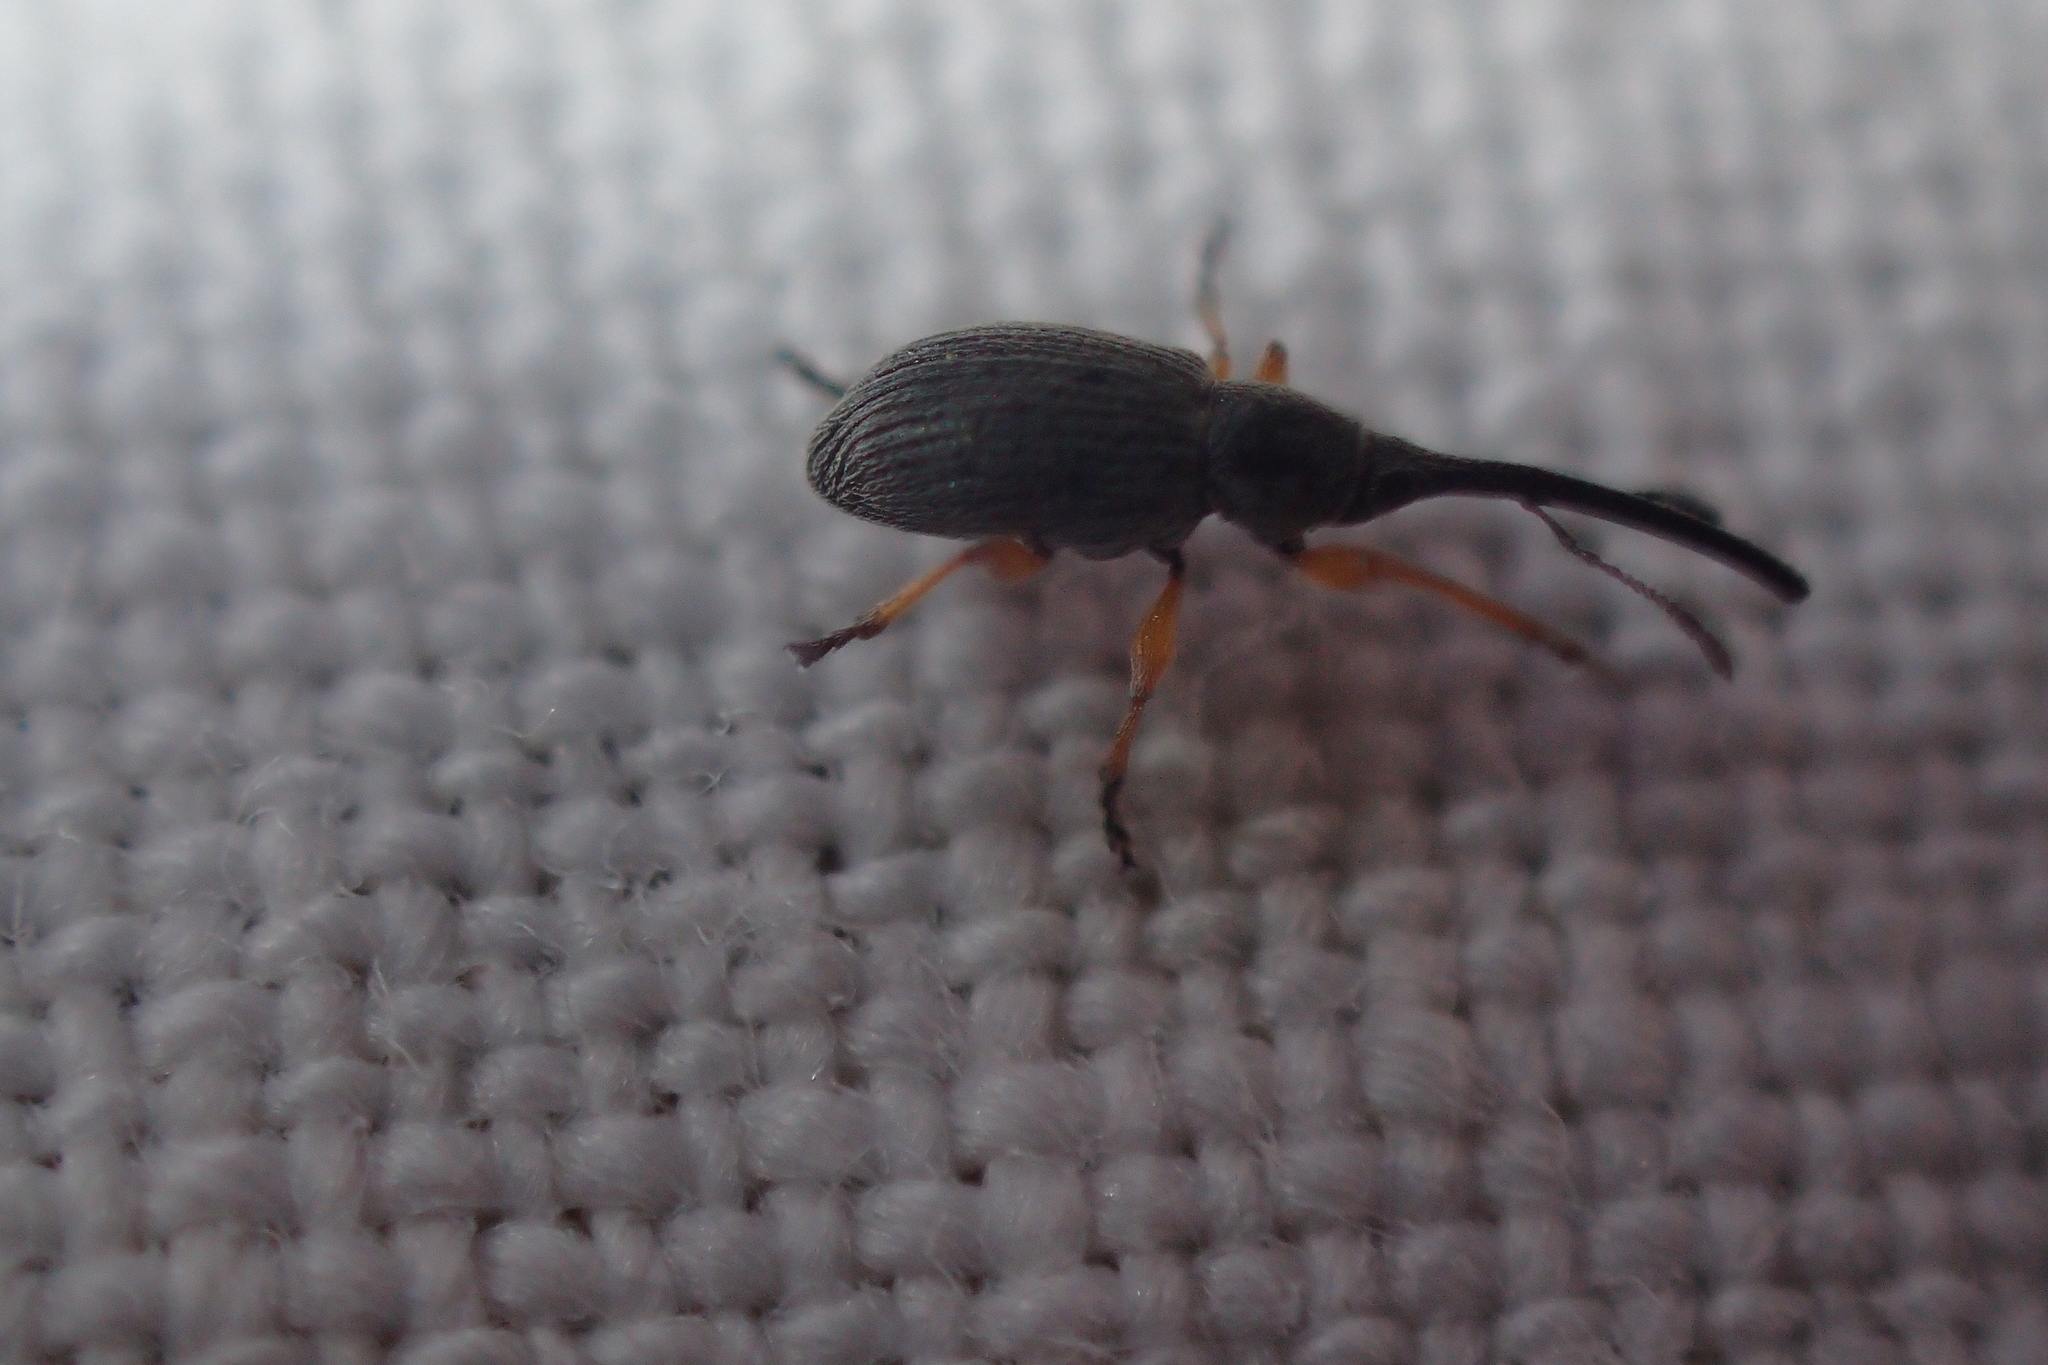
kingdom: Animalia
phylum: Arthropoda
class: Insecta
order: Coleoptera
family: Brentidae
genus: Rhopalapion
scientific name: Rhopalapion longirostre
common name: Hollyhock weevil
